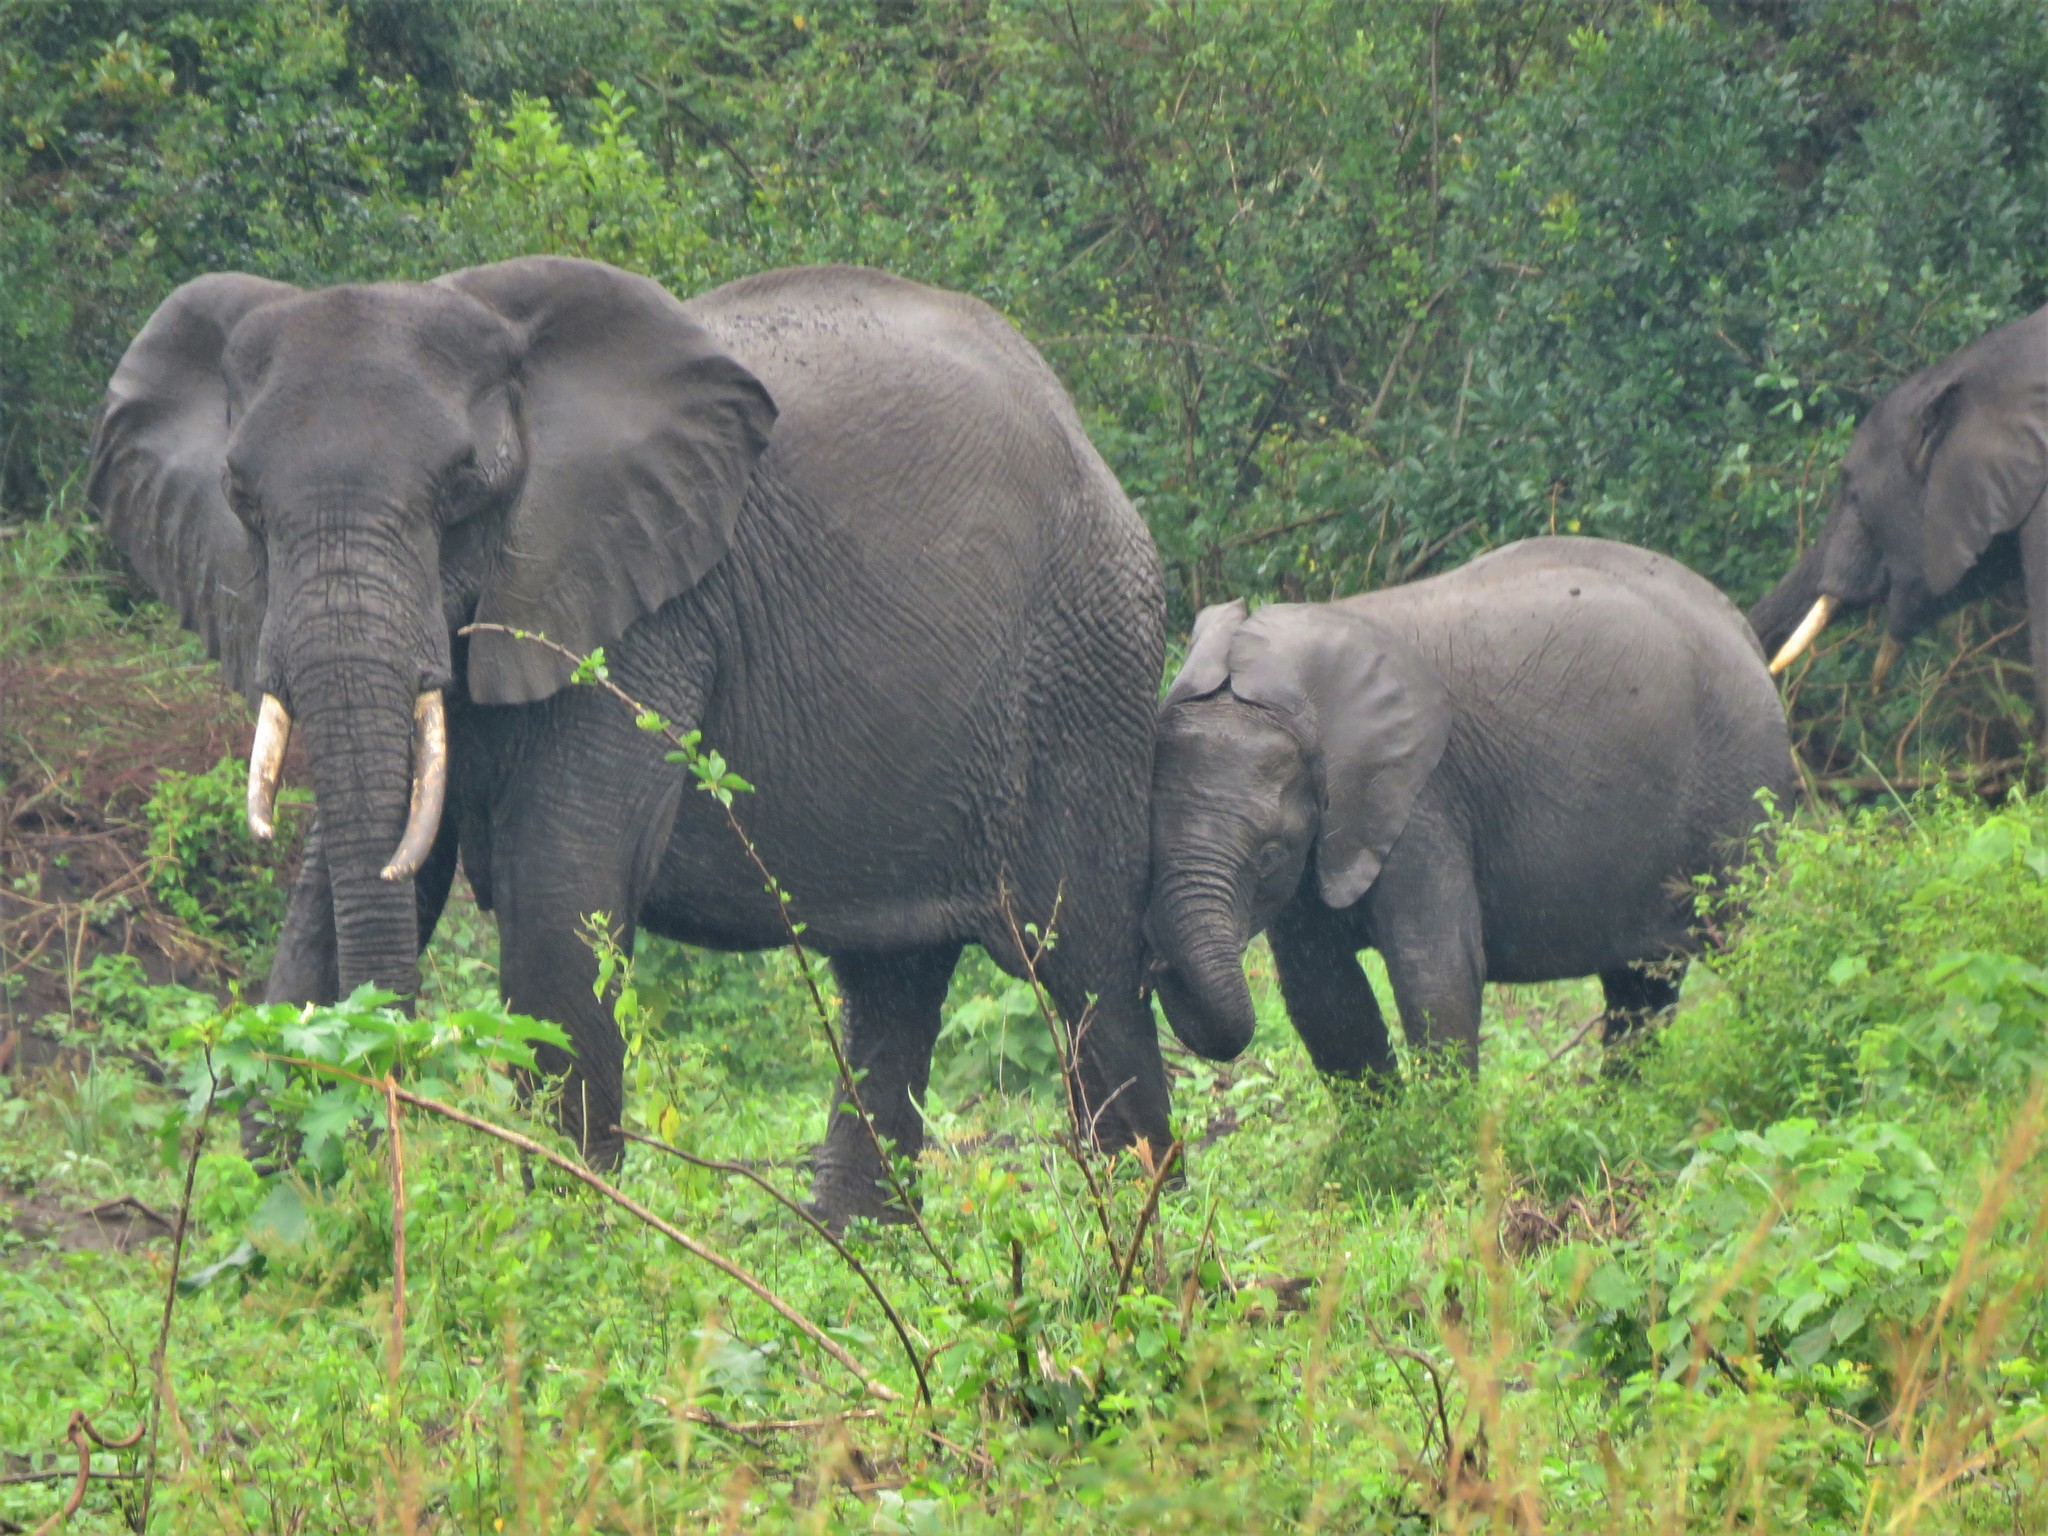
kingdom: Animalia
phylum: Chordata
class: Mammalia
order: Proboscidea
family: Elephantidae
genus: Loxodonta
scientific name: Loxodonta africana
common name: African elephant
